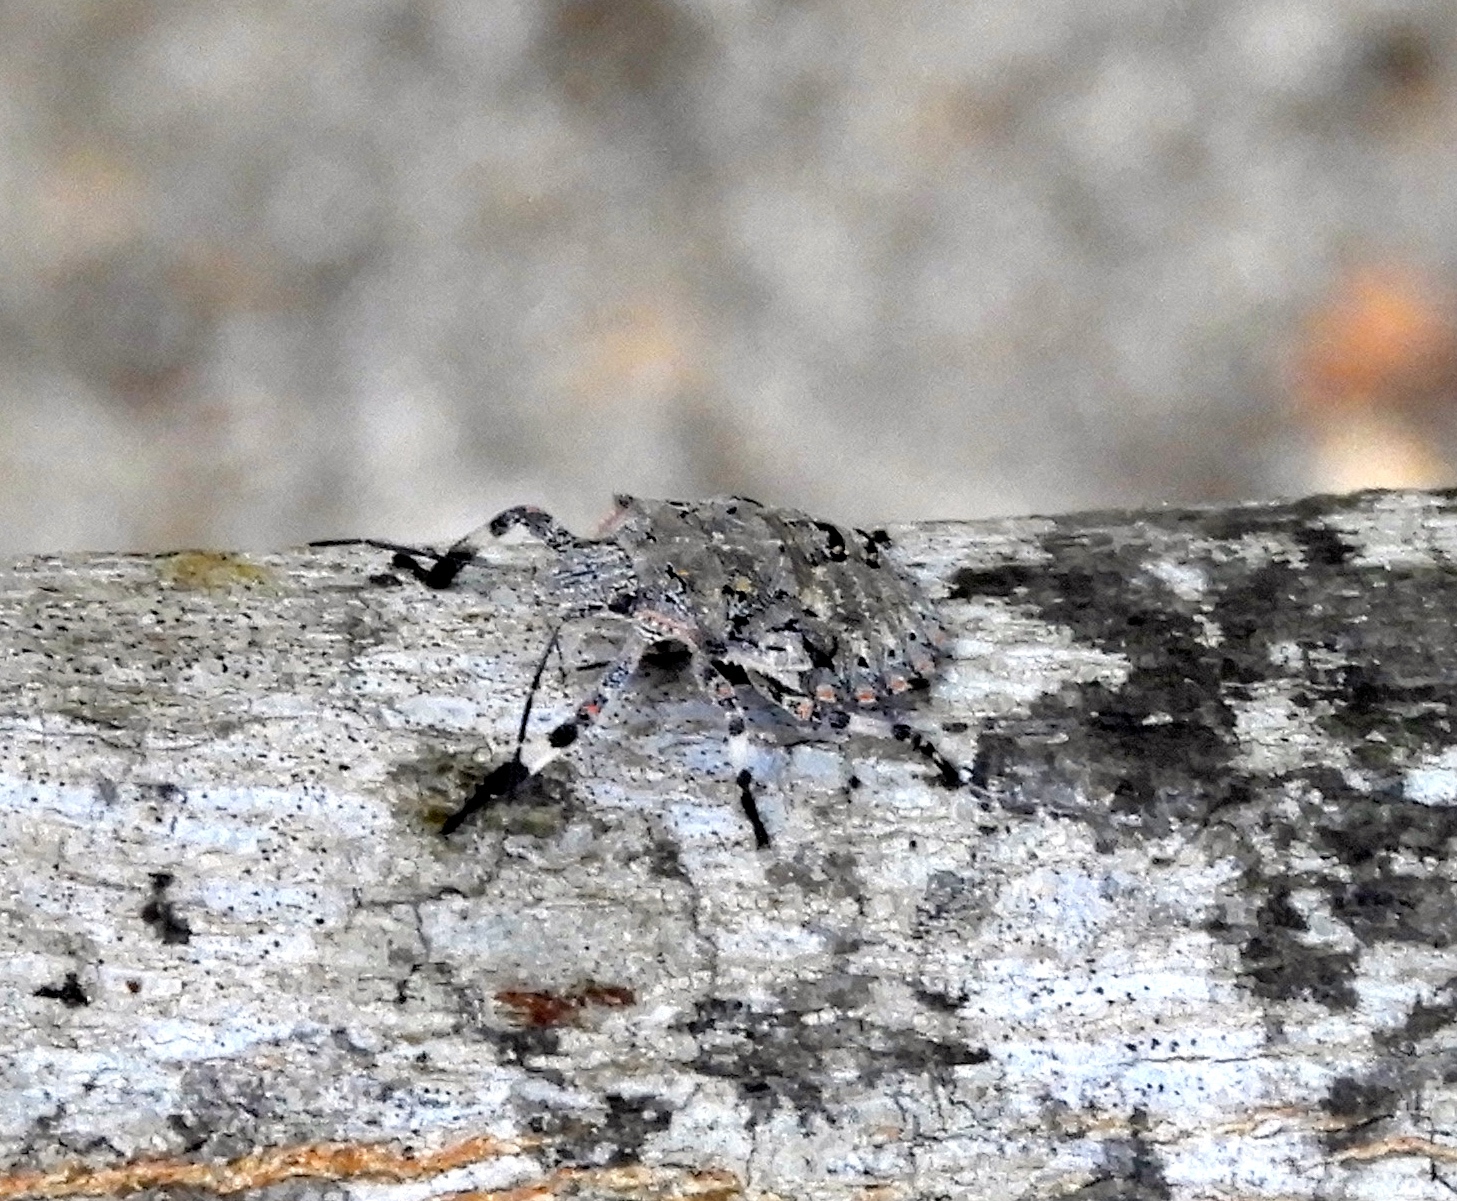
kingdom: Animalia
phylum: Arthropoda
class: Insecta
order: Hemiptera
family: Pentatomidae
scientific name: Pentatomidae
